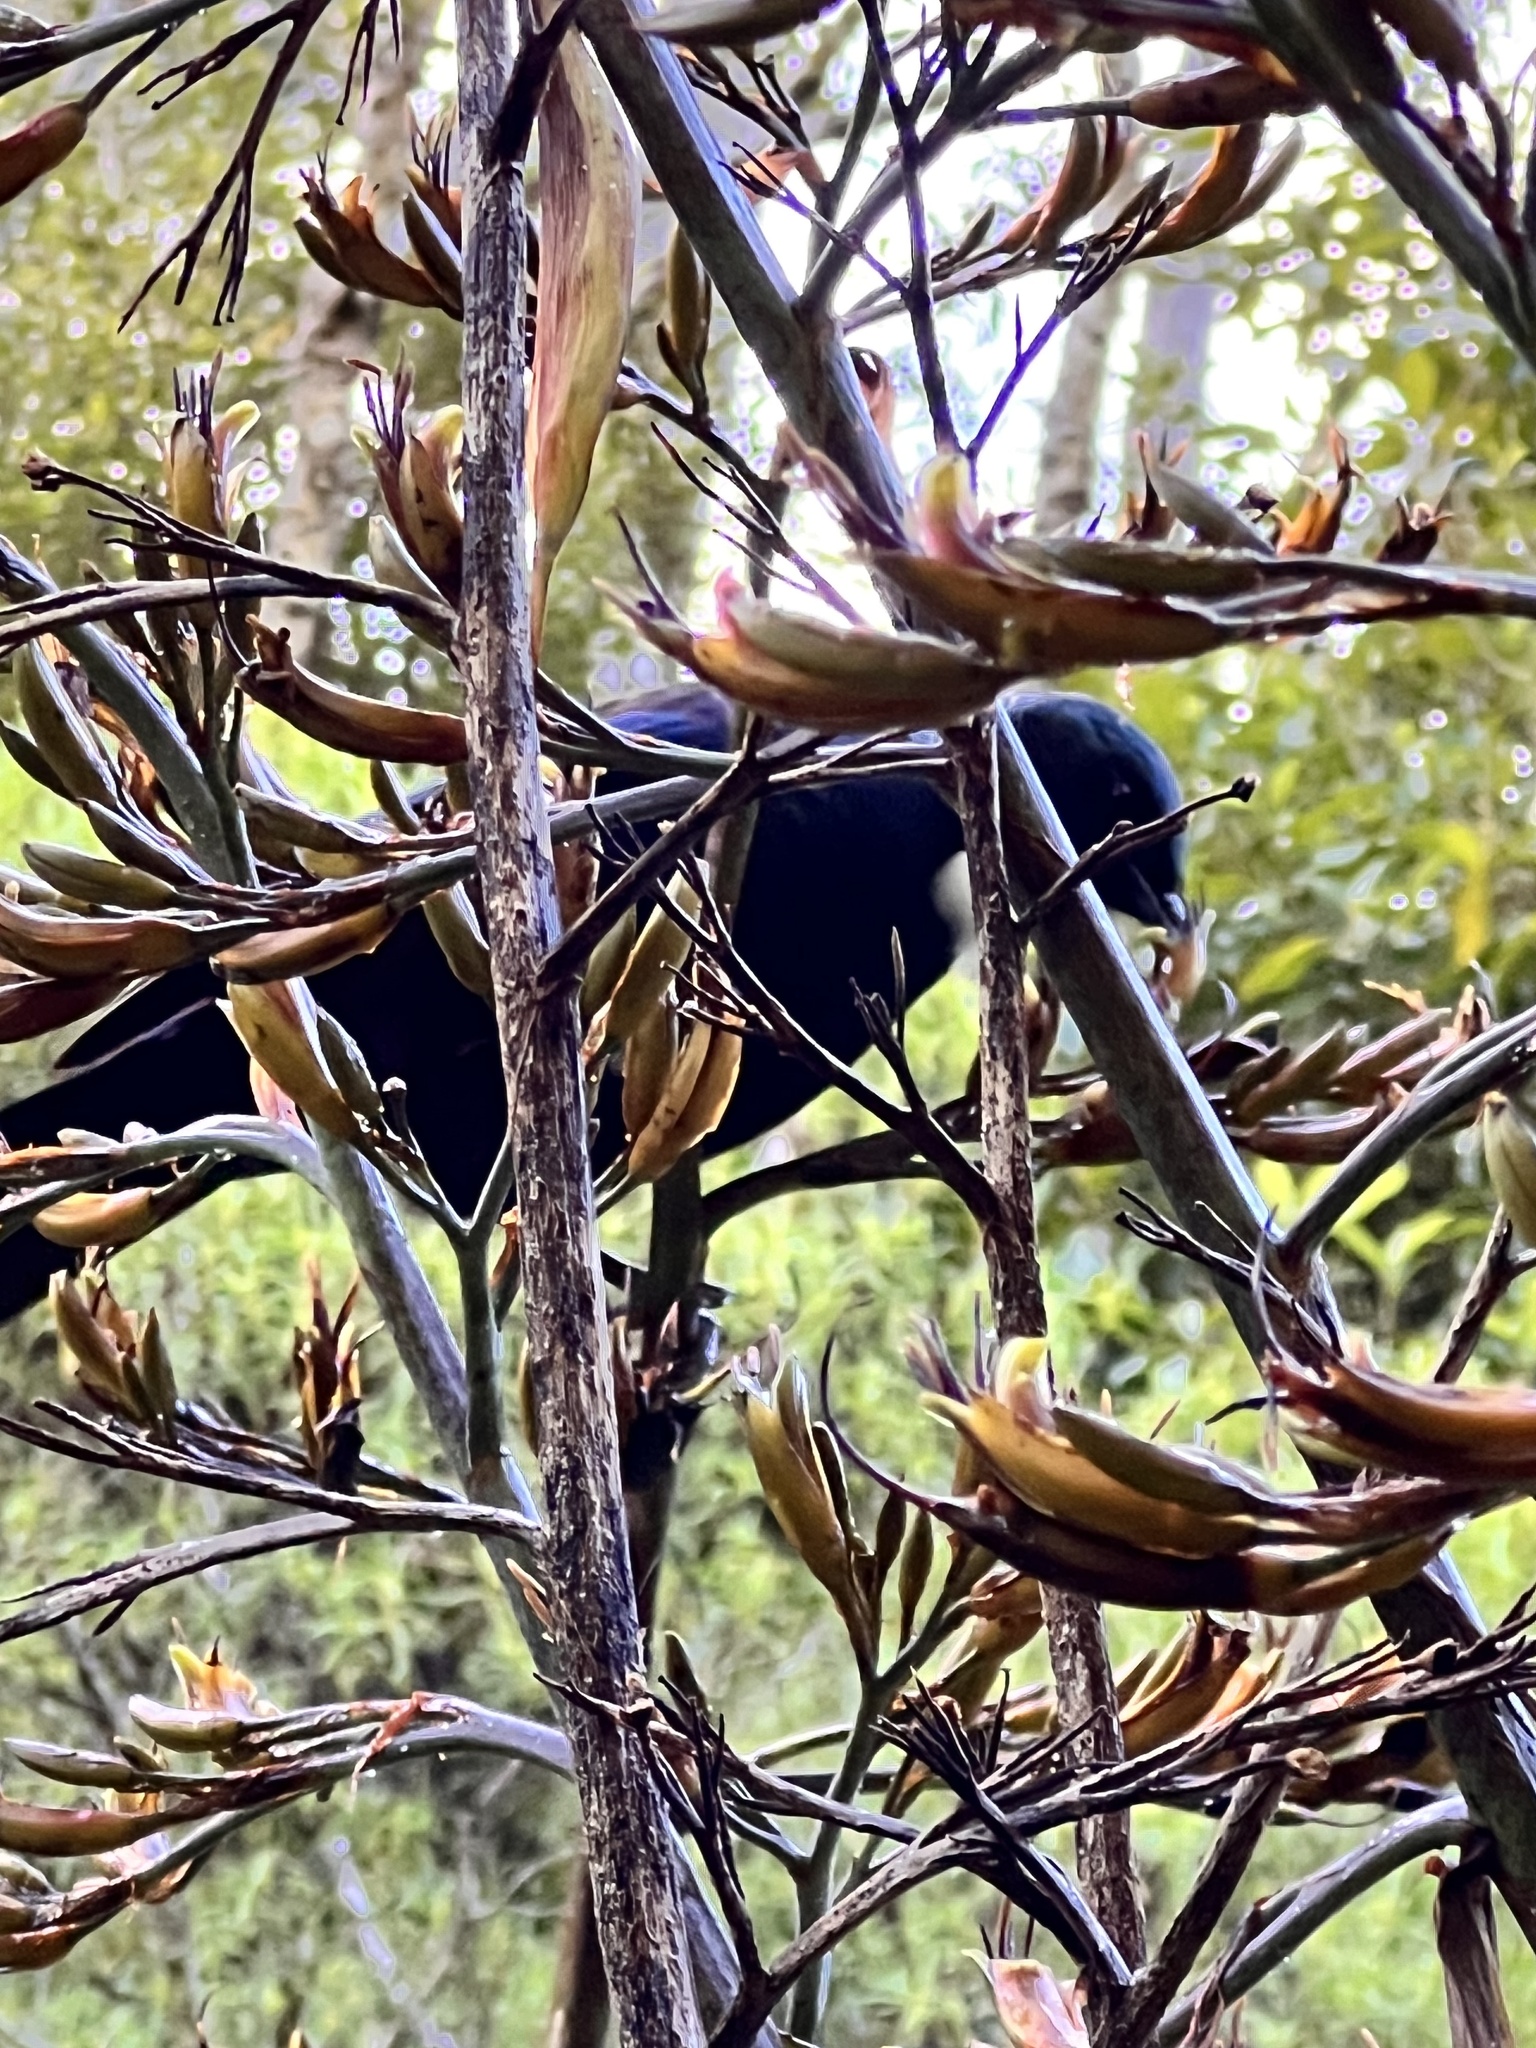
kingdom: Animalia
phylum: Chordata
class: Aves
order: Passeriformes
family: Meliphagidae
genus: Prosthemadera
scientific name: Prosthemadera novaeseelandiae
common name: Tui
